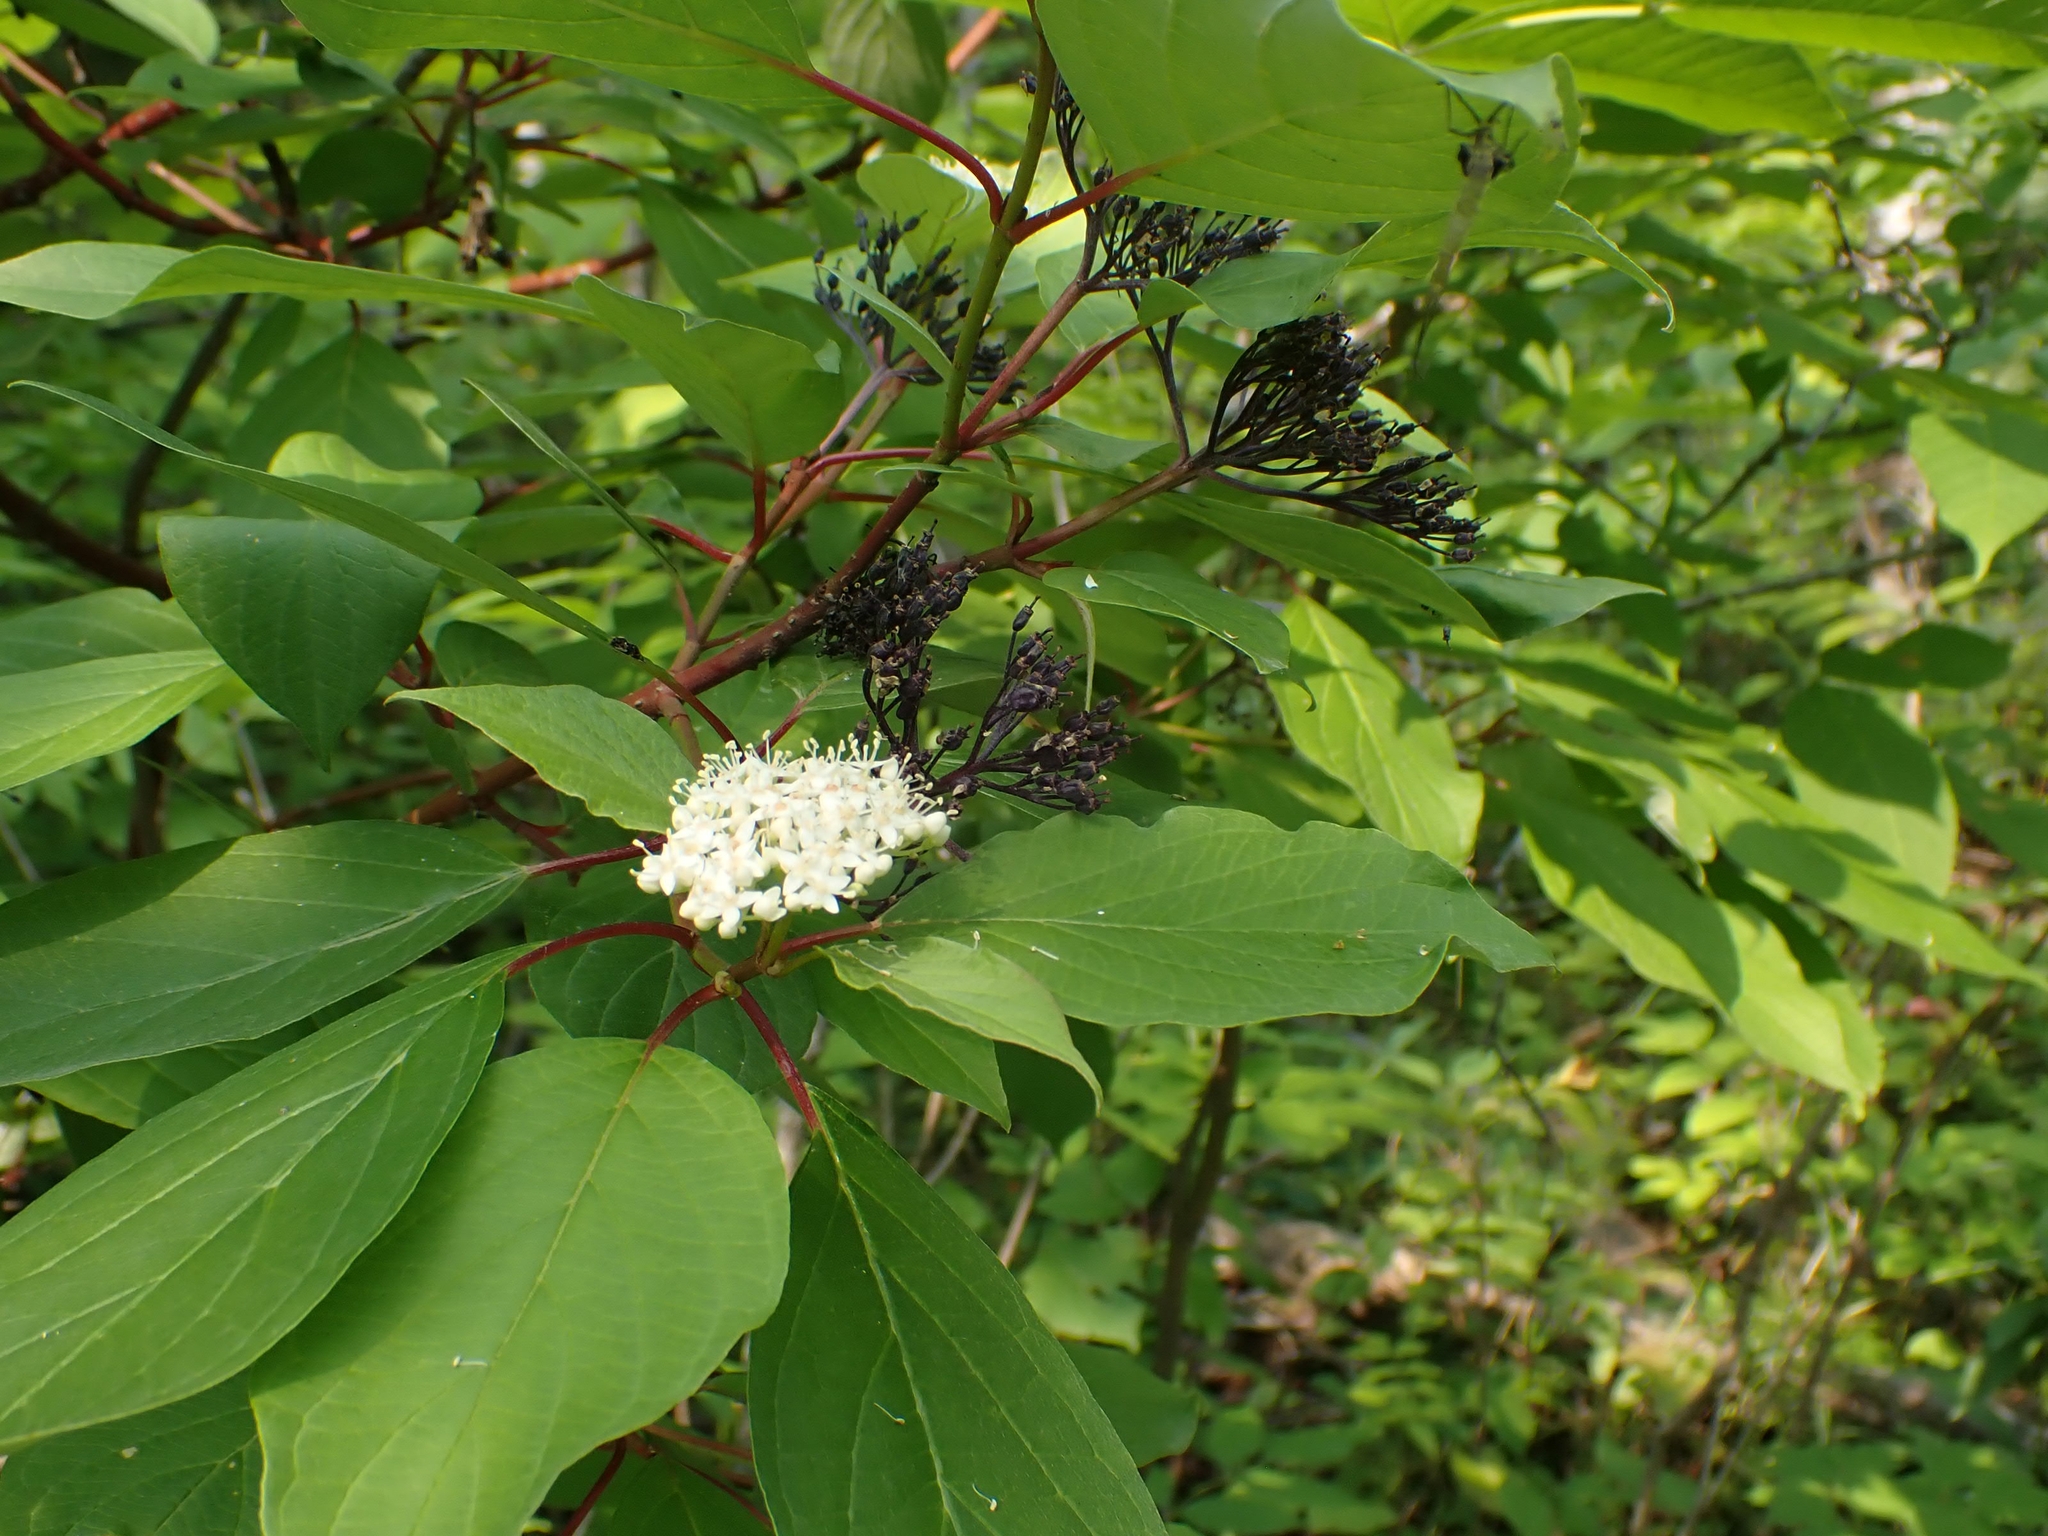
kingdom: Plantae
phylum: Tracheophyta
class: Magnoliopsida
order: Cornales
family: Cornaceae
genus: Cornus
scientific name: Cornus sericea
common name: Red-osier dogwood
